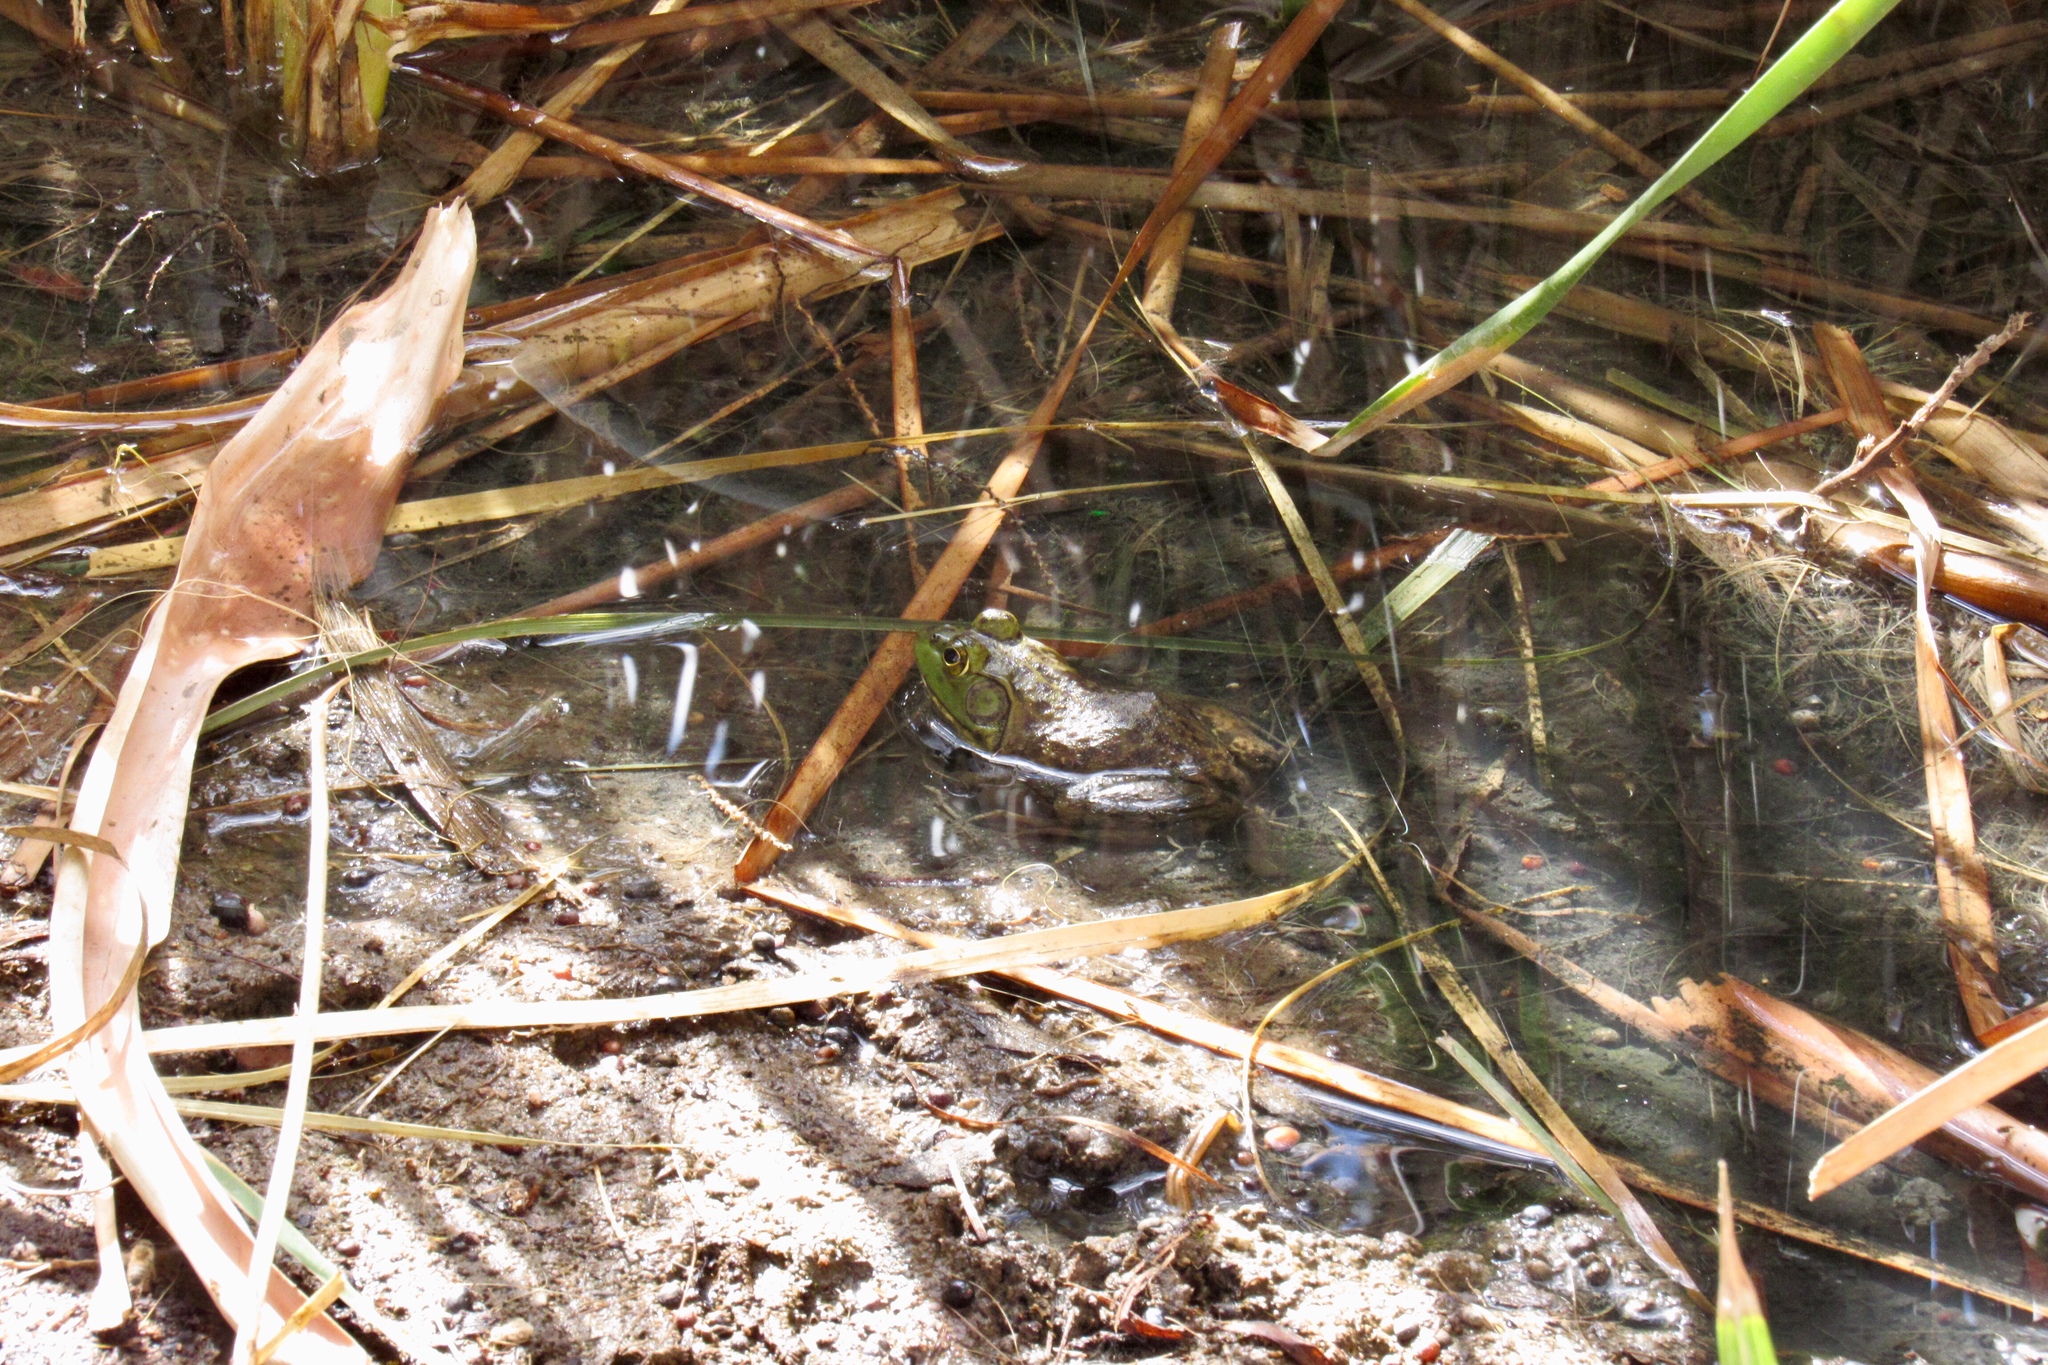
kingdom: Animalia
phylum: Chordata
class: Amphibia
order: Anura
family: Ranidae
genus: Lithobates
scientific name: Lithobates catesbeianus
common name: American bullfrog
